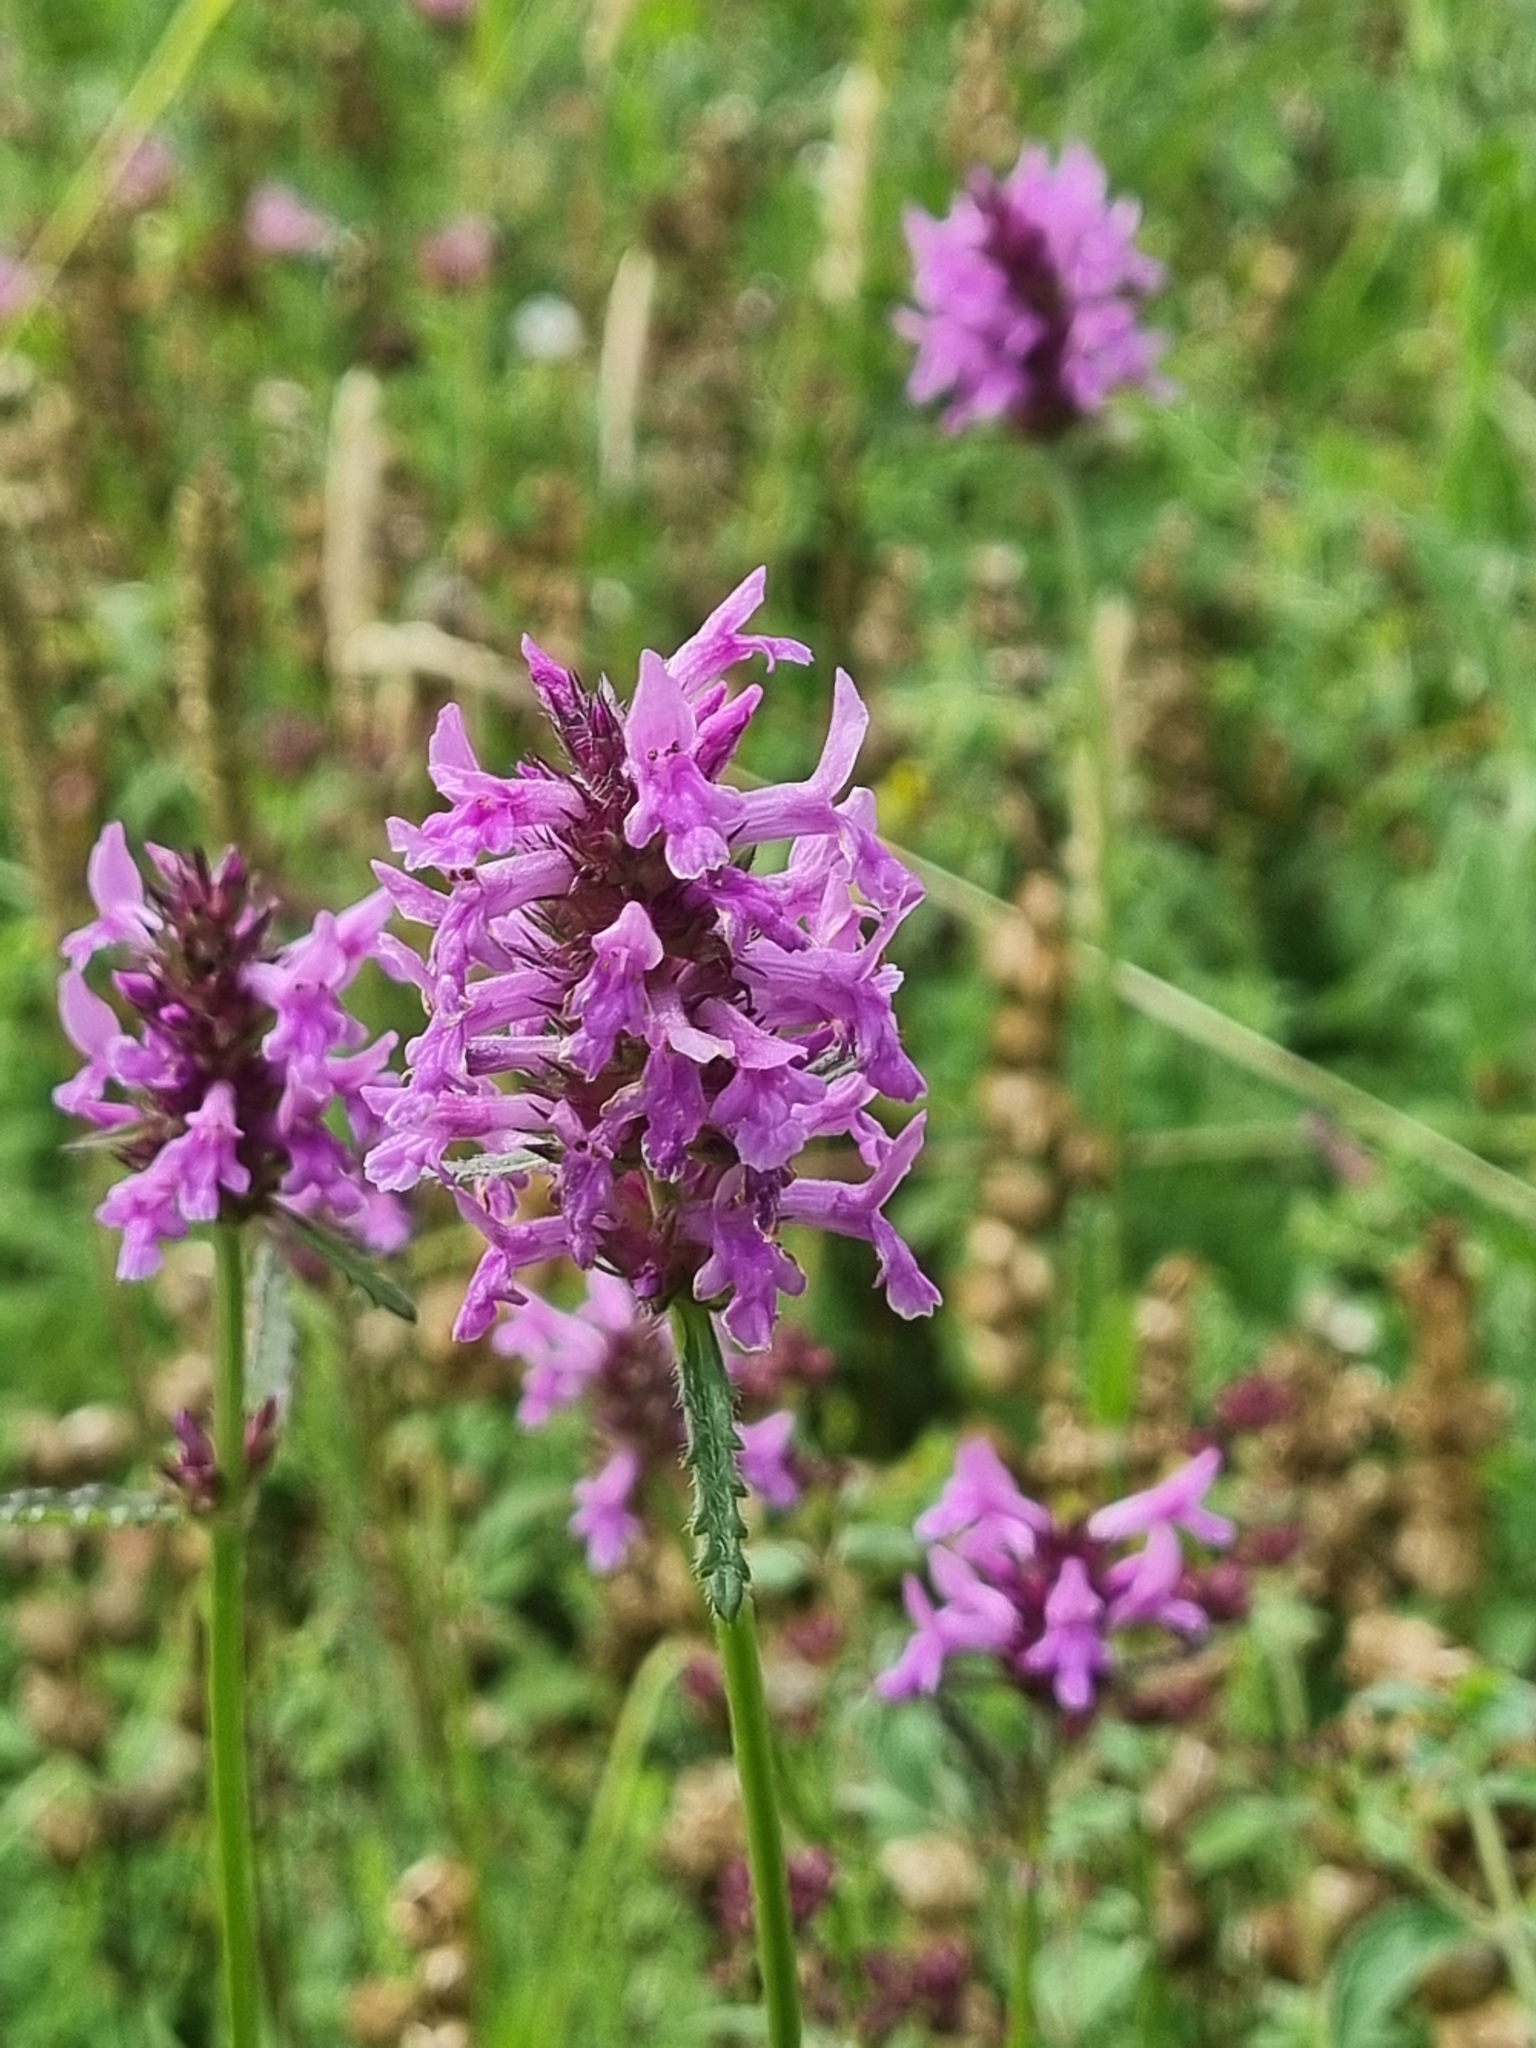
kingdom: Plantae
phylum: Tracheophyta
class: Magnoliopsida
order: Lamiales
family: Lamiaceae
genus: Betonica
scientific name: Betonica officinalis
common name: Bishop's-wort
